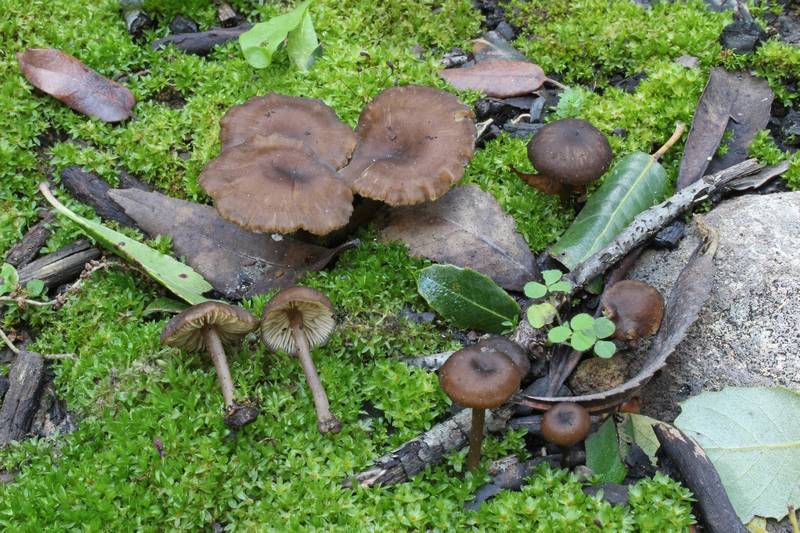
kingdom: Fungi
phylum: Basidiomycota
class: Agaricomycetes
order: Agaricales
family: Tricholomataceae
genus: Myxomphalia
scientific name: Myxomphalia maura
